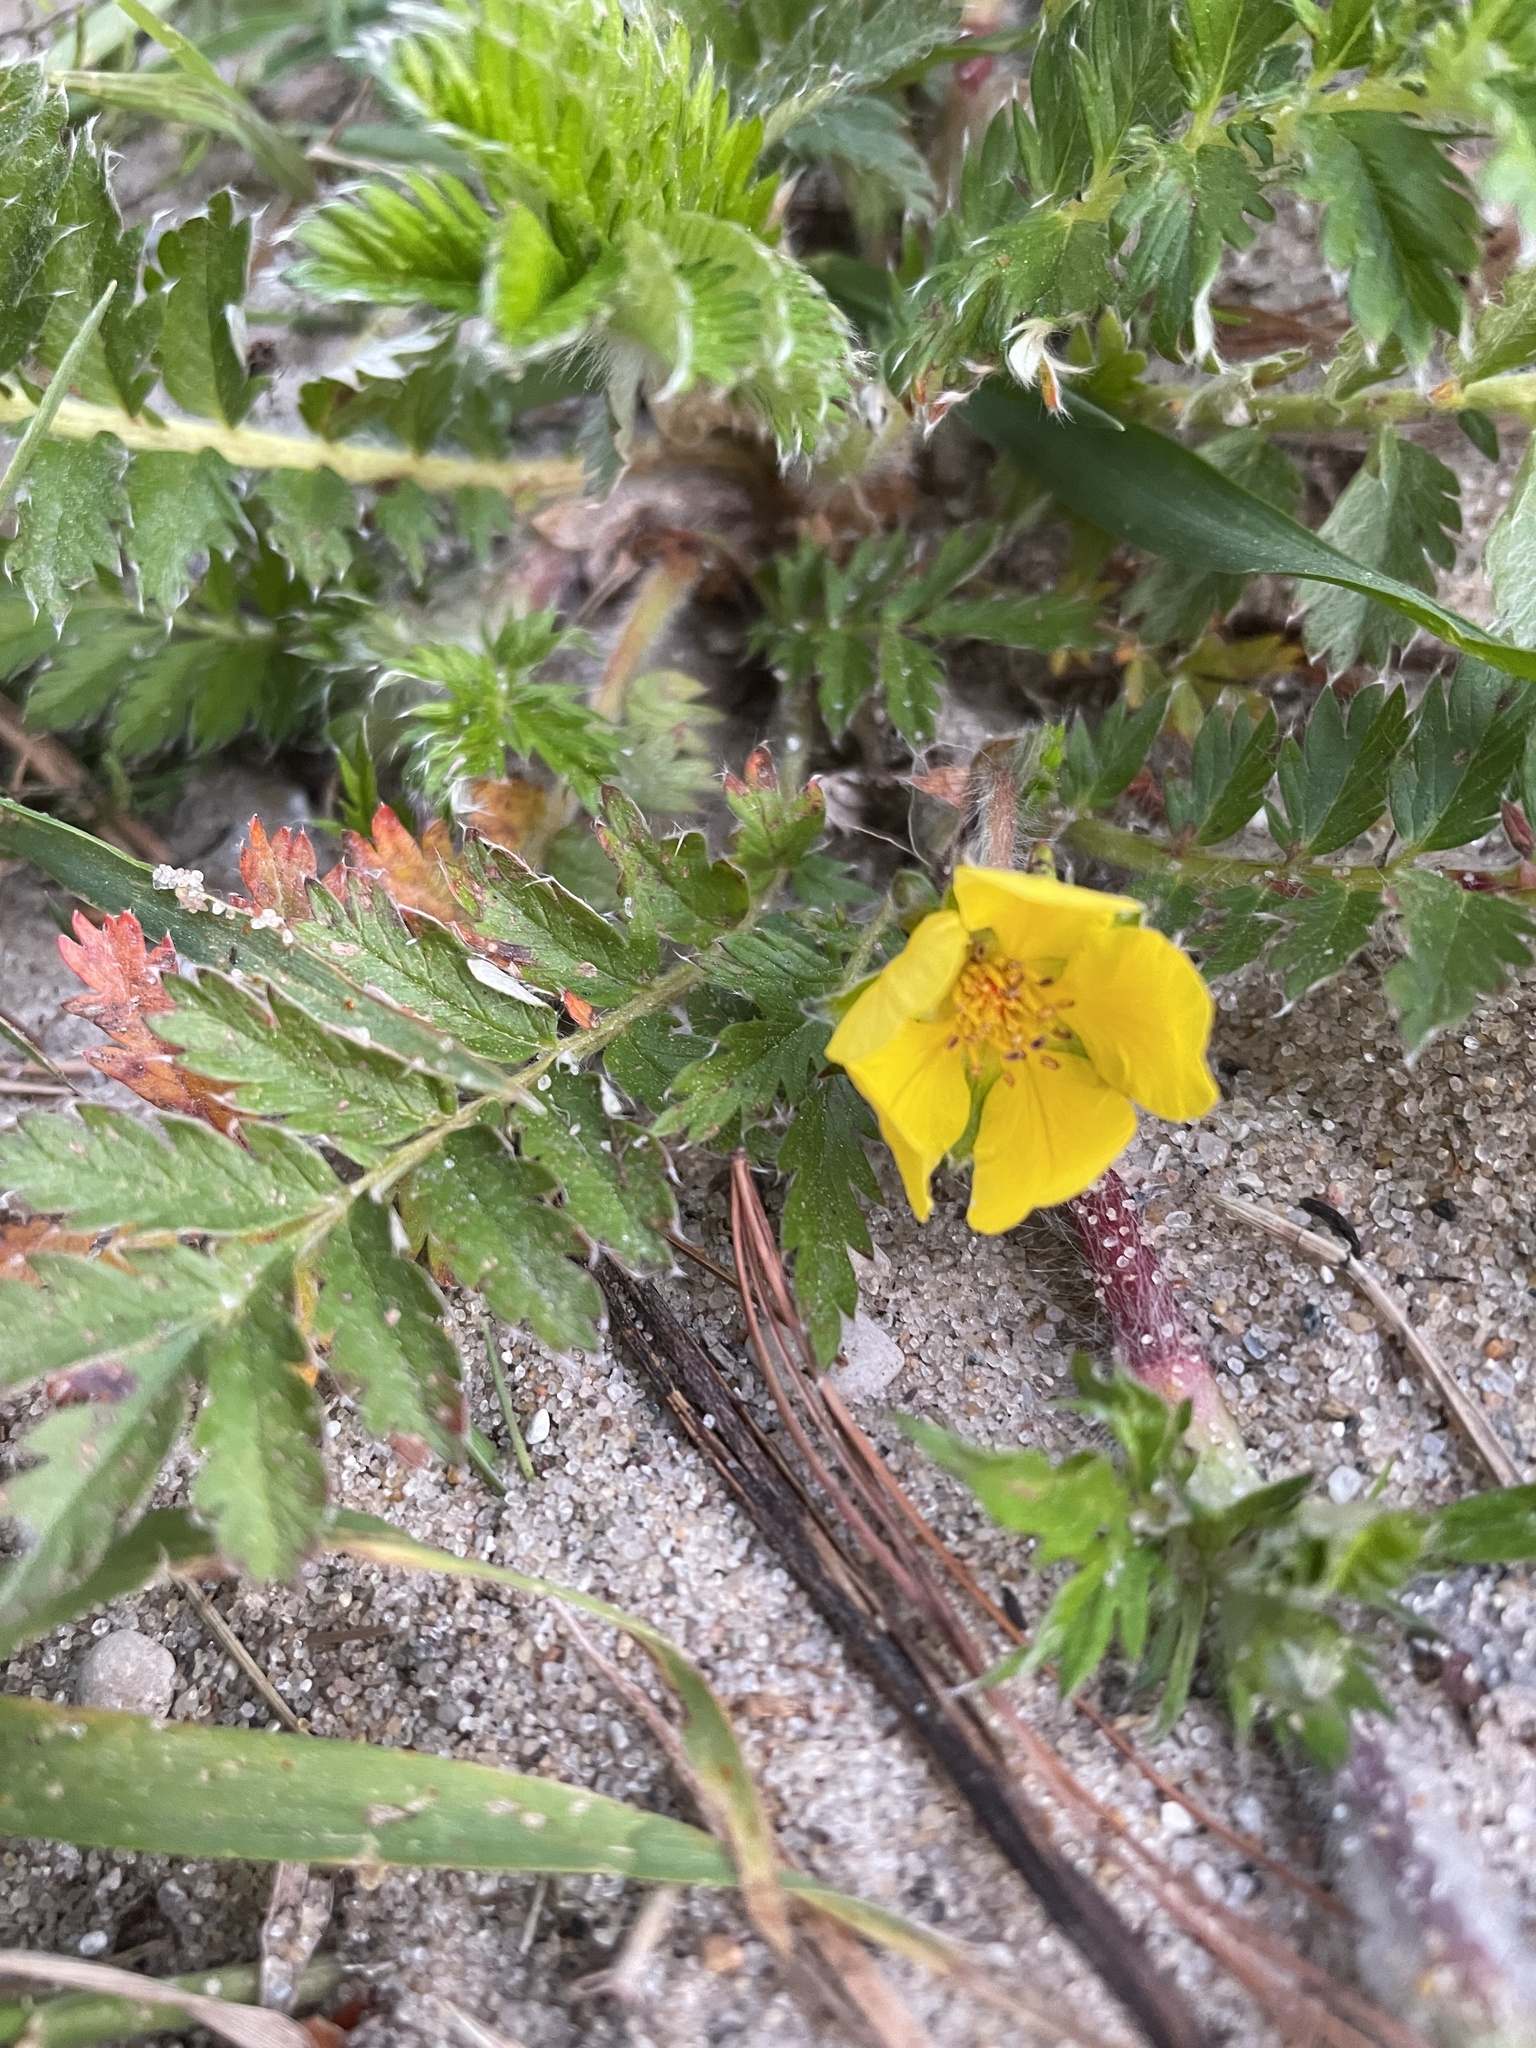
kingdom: Plantae
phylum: Tracheophyta
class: Magnoliopsida
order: Rosales
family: Rosaceae
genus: Argentina
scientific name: Argentina anserina
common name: Common silverweed
